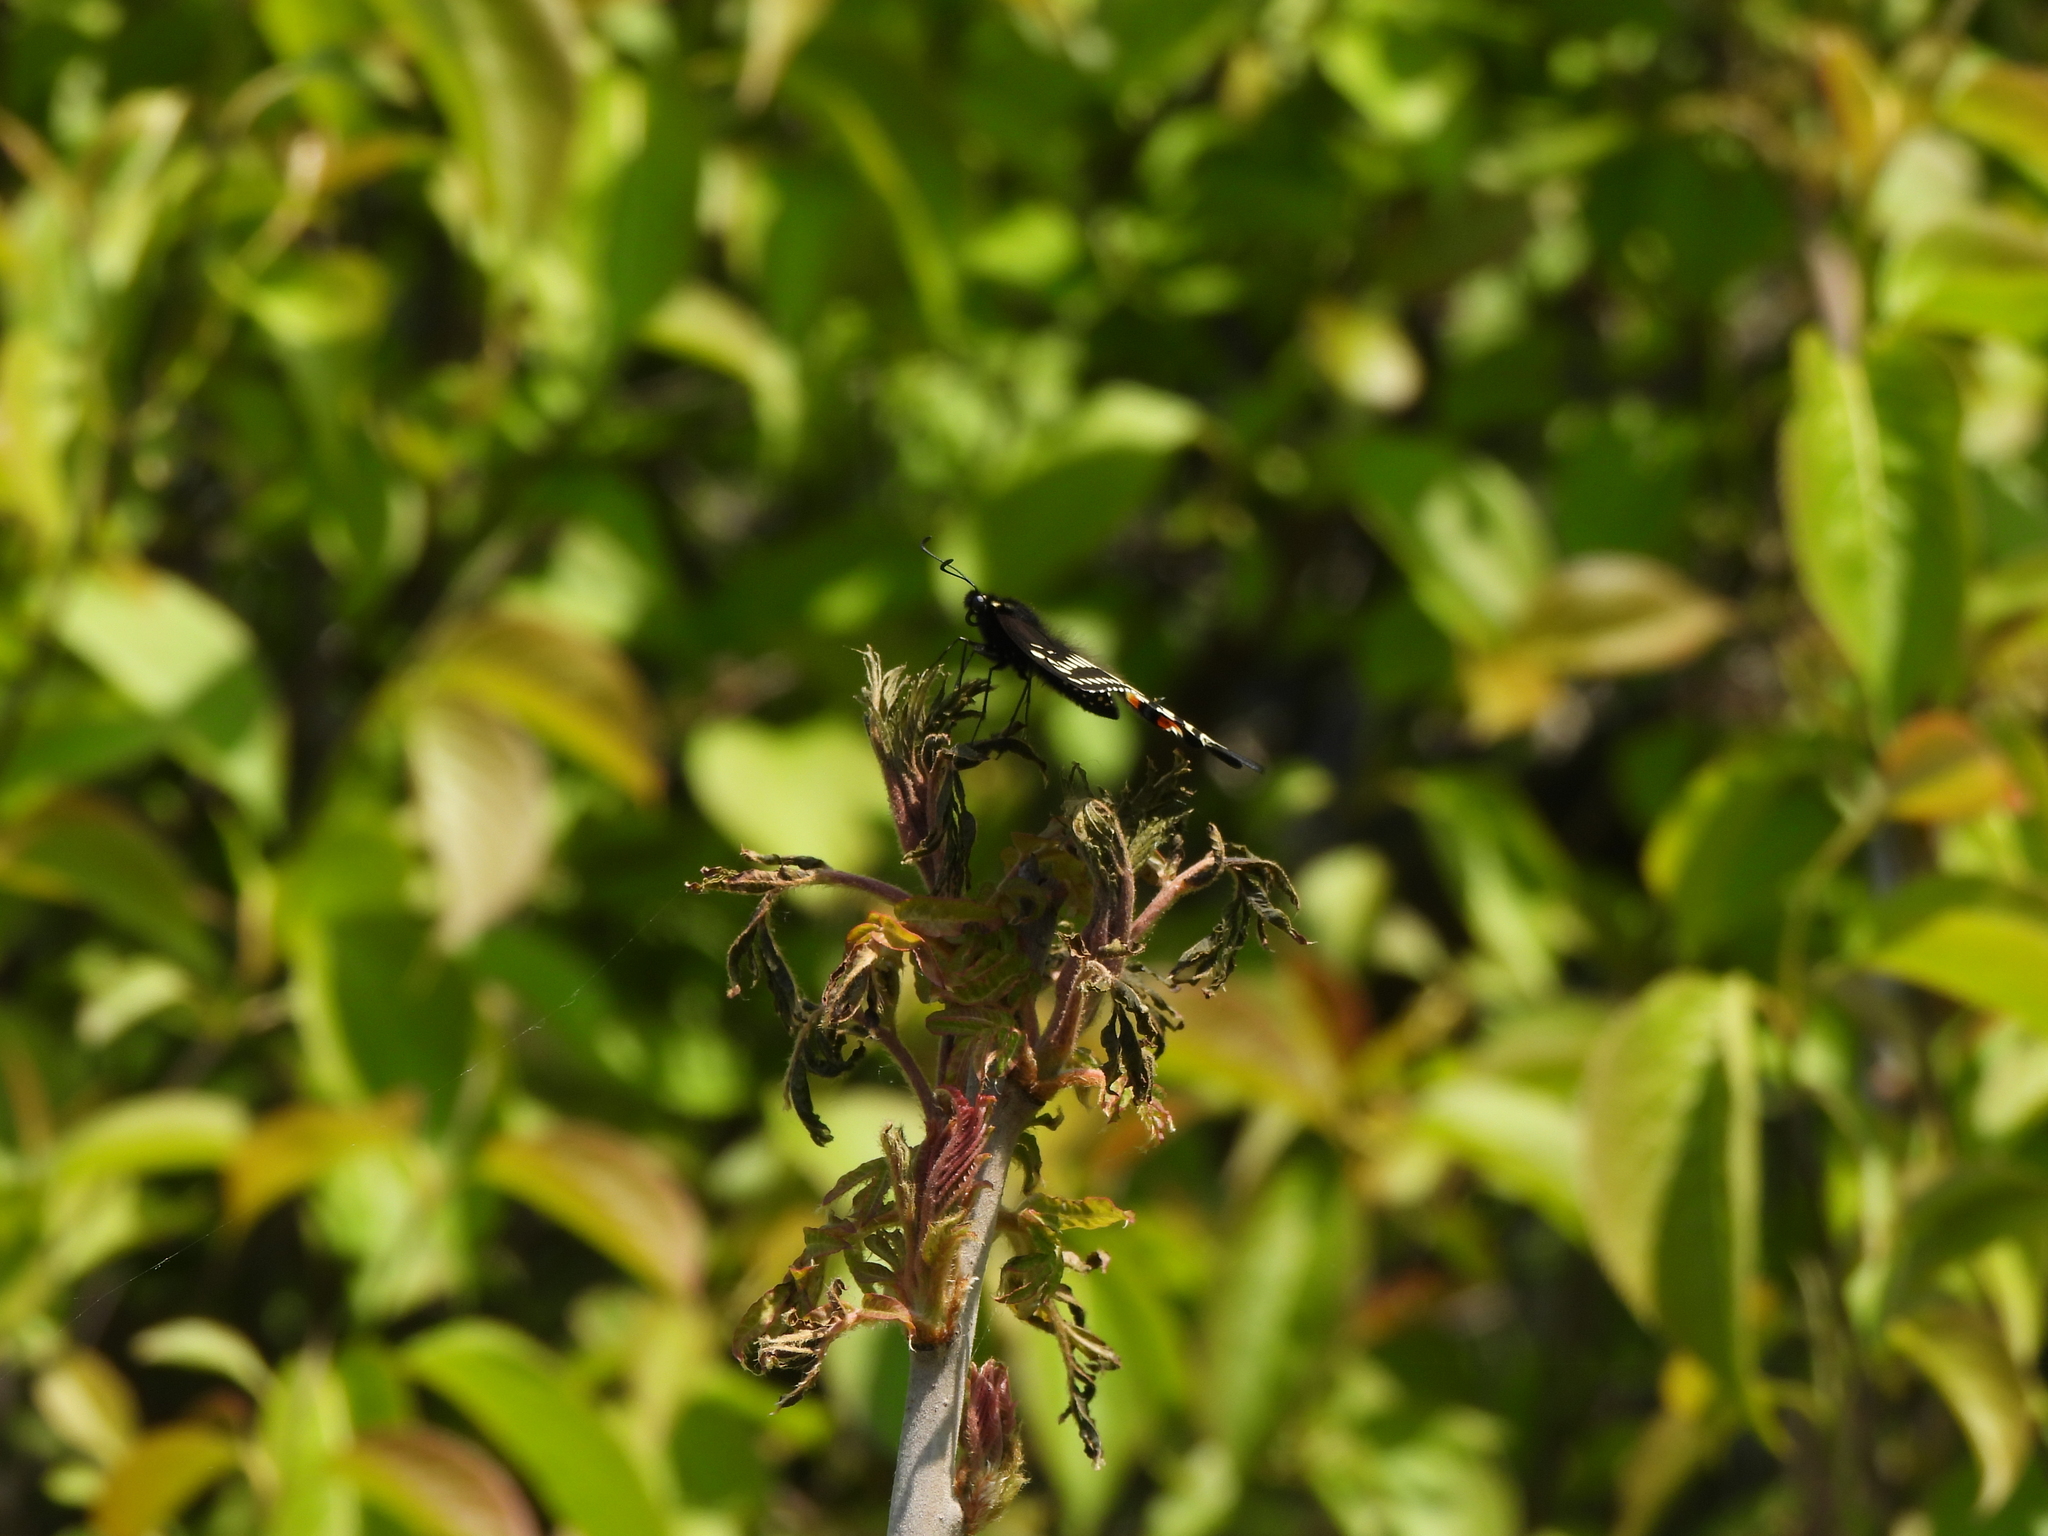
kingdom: Animalia
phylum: Arthropoda
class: Insecta
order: Lepidoptera
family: Papilionidae
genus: Papilio
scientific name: Papilio polyxenes
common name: Black swallowtail
